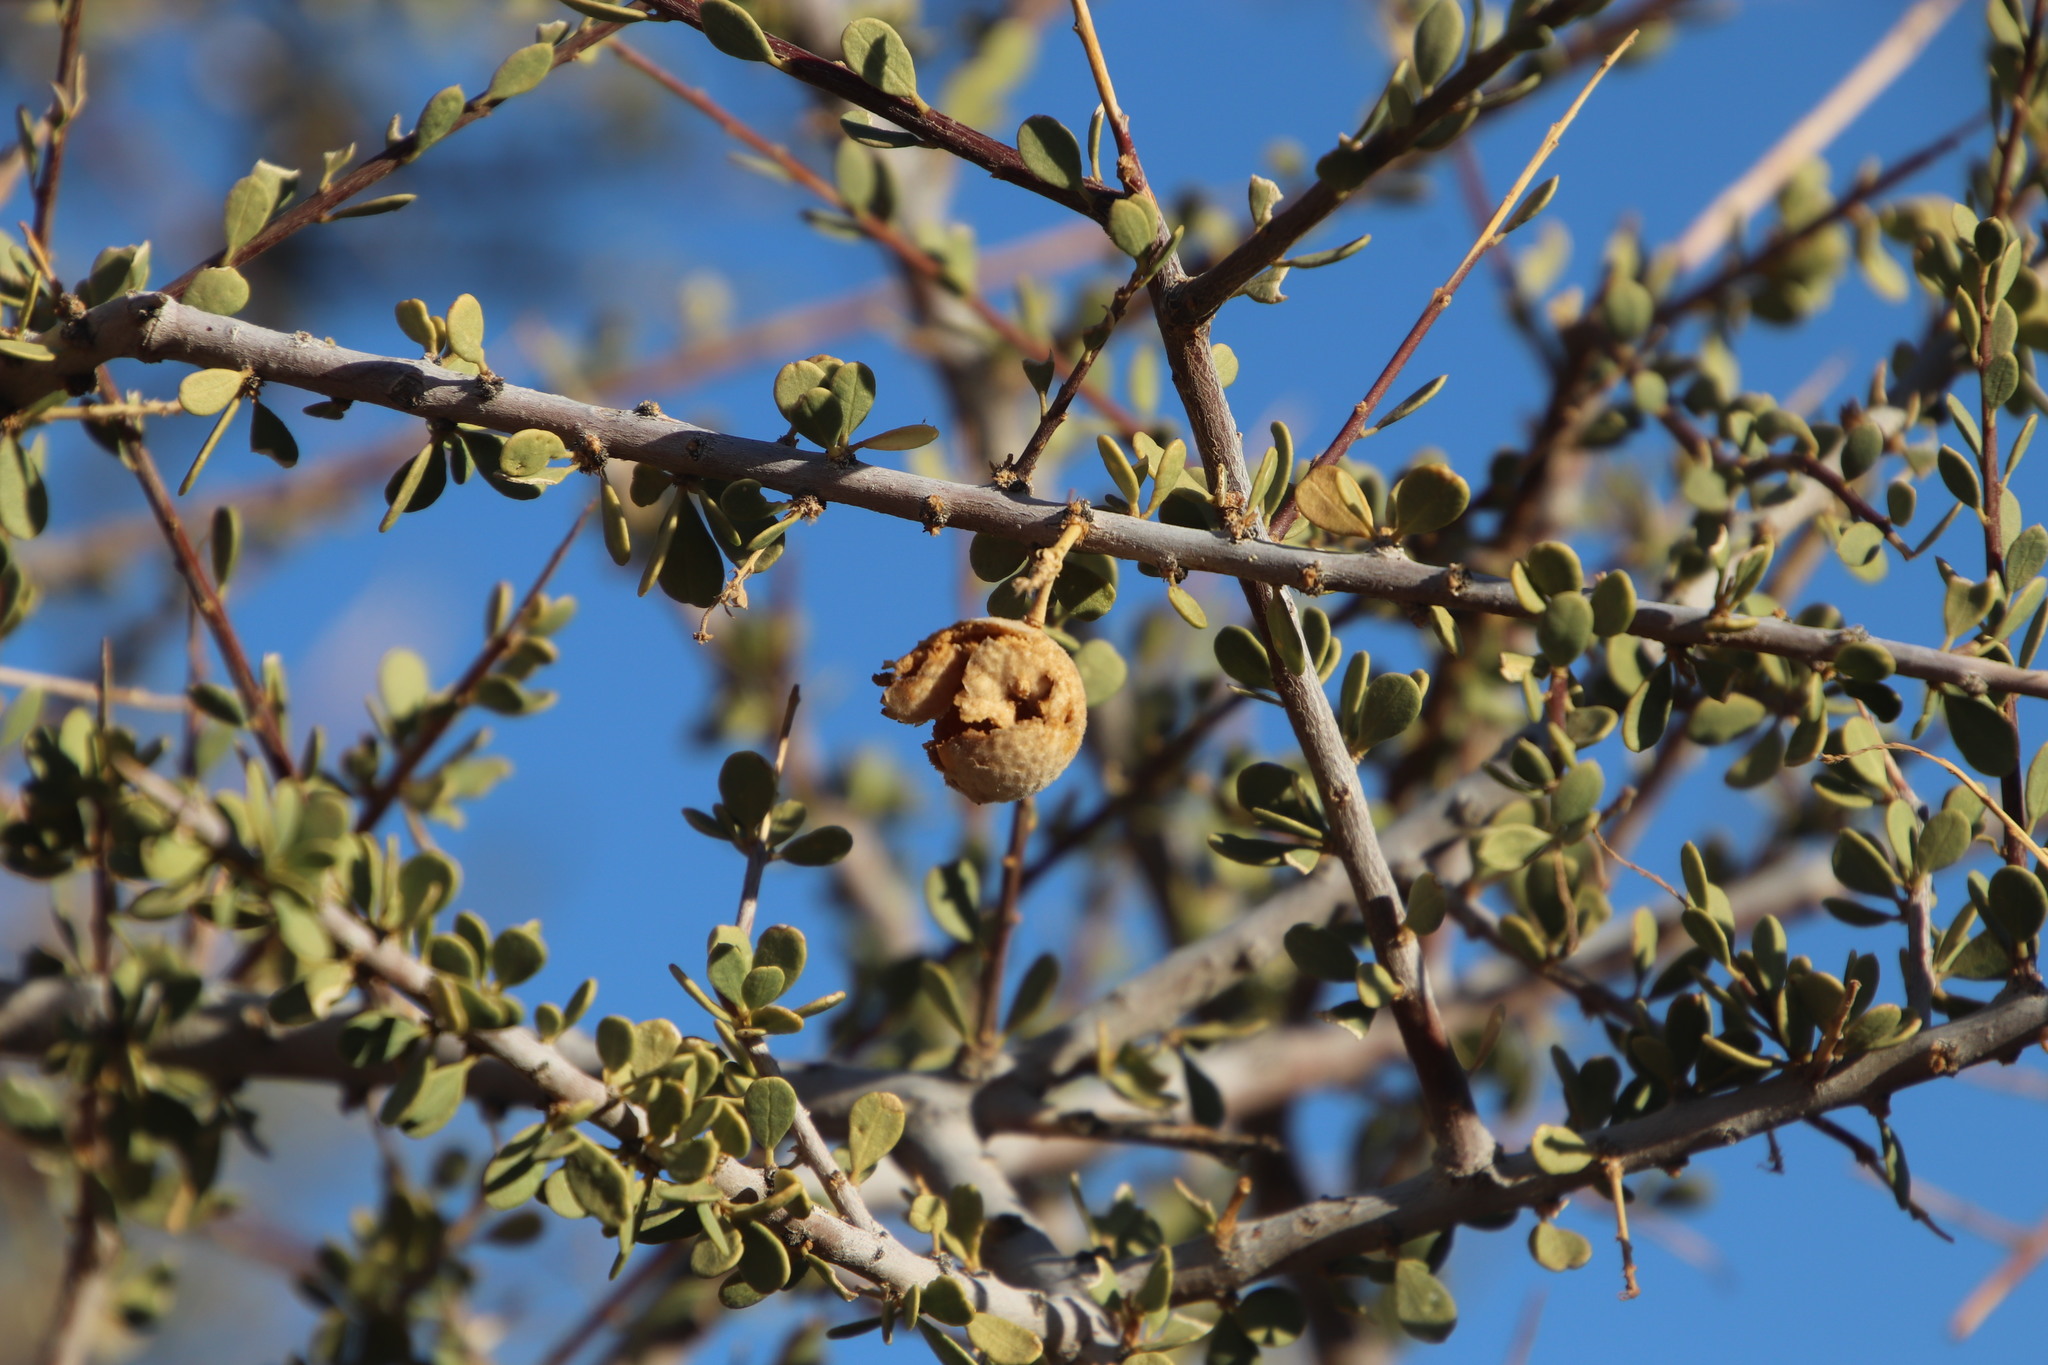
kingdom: Plantae
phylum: Tracheophyta
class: Magnoliopsida
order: Brassicales
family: Capparaceae
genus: Boscia
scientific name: Boscia foetida
